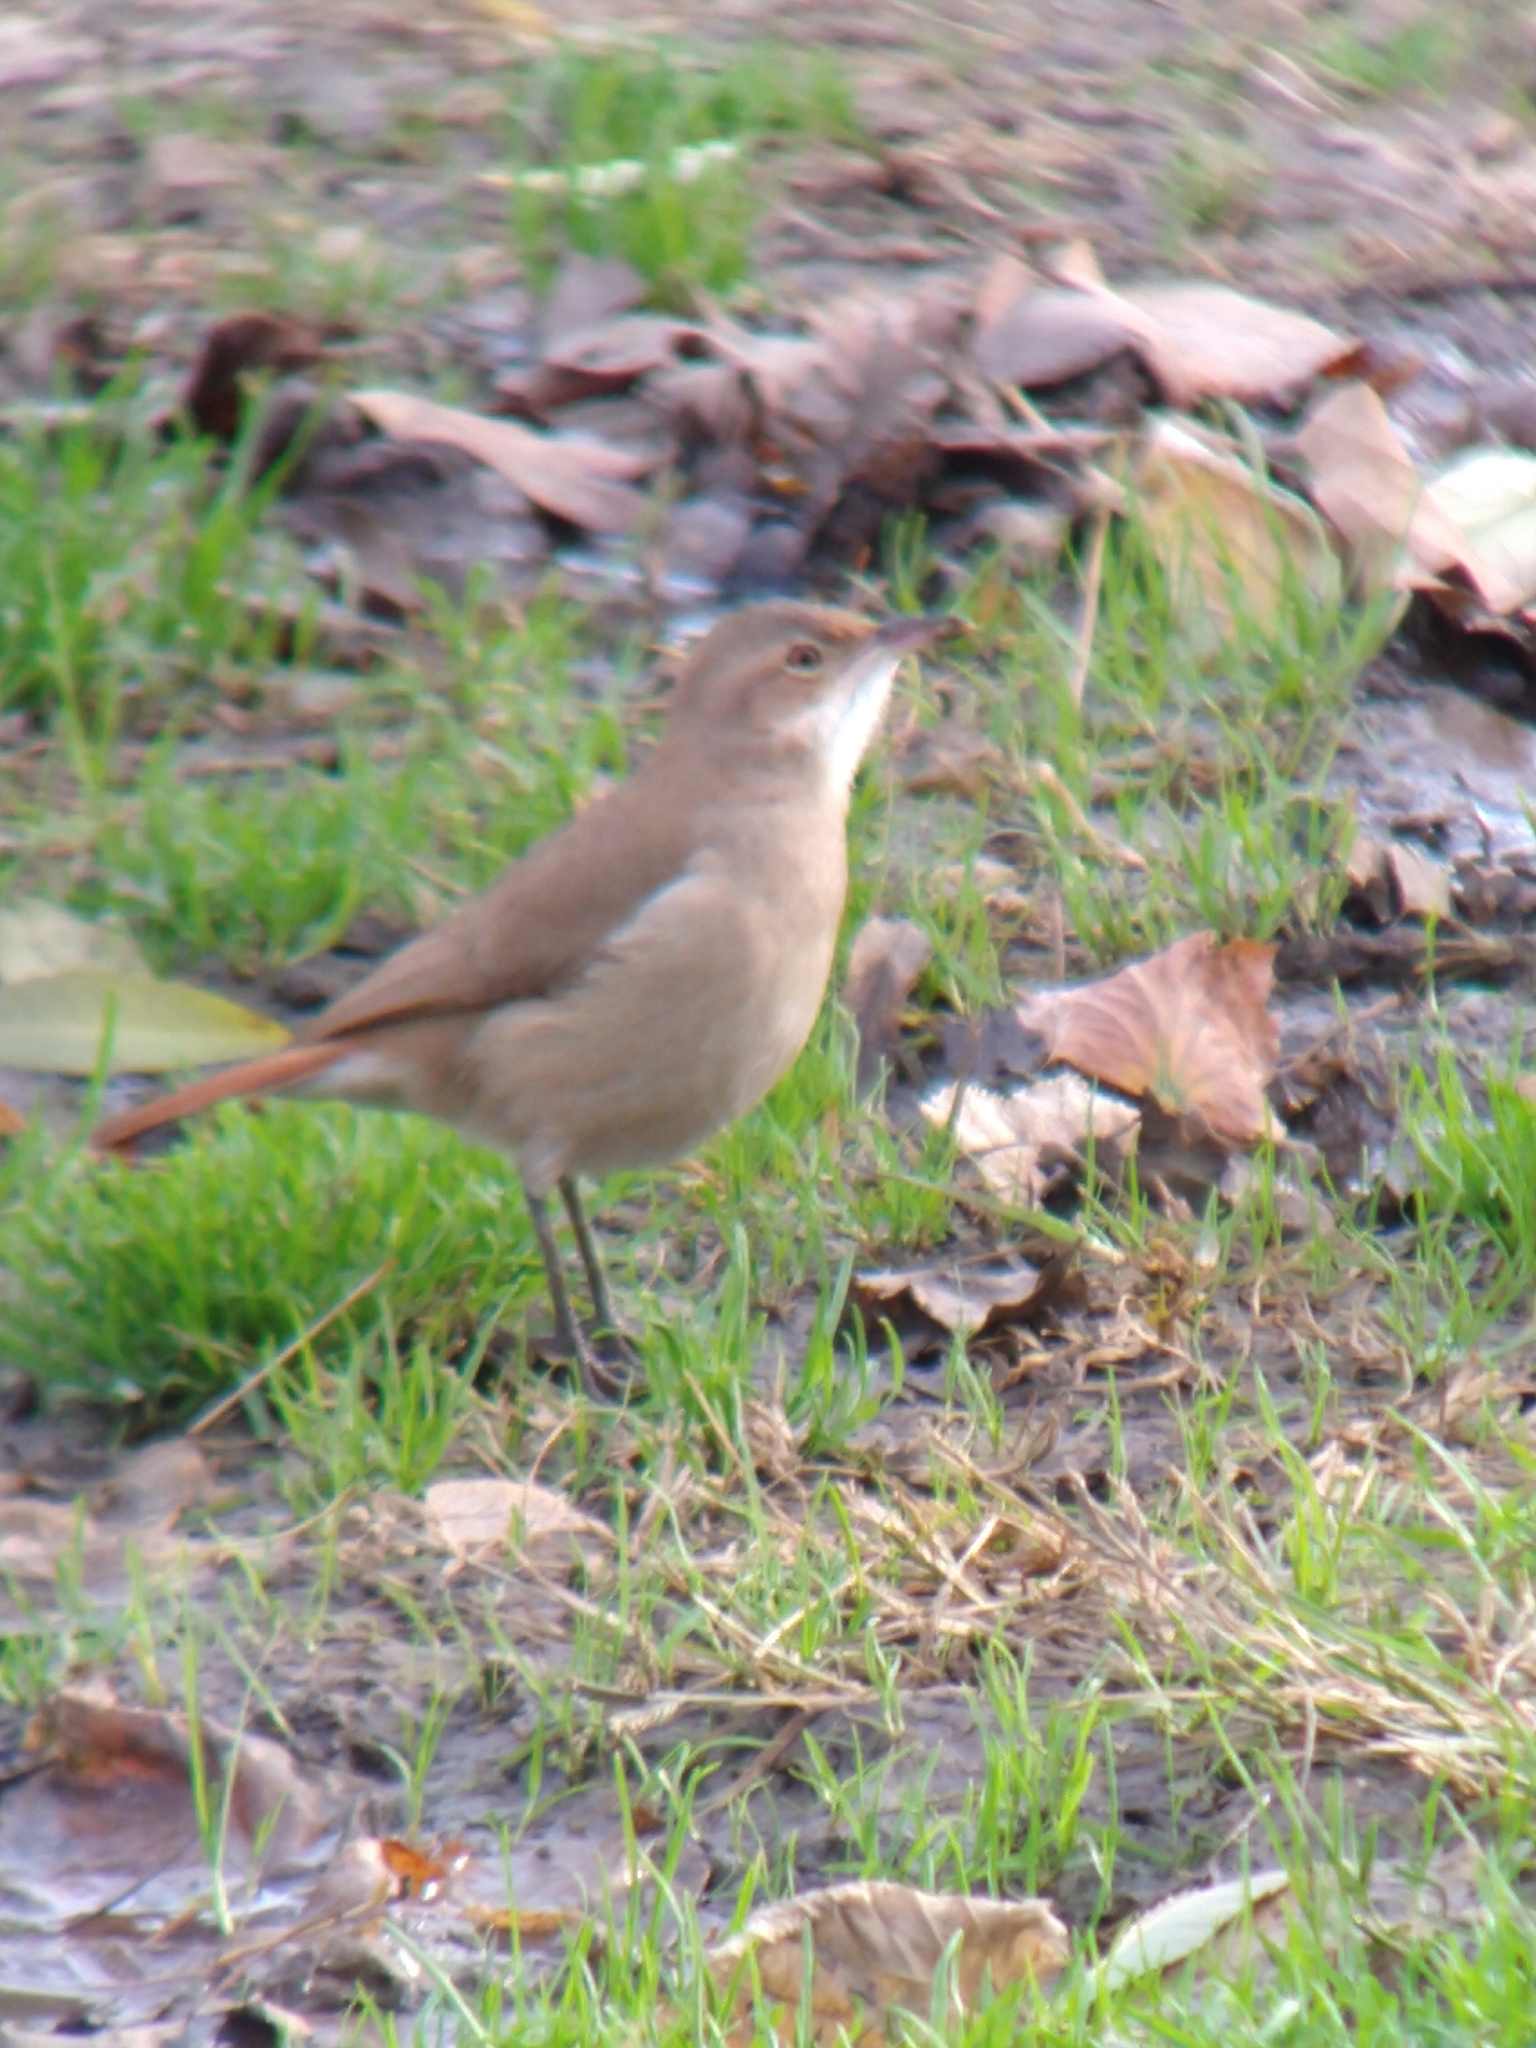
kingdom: Animalia
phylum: Chordata
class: Aves
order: Passeriformes
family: Furnariidae
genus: Furnarius
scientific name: Furnarius rufus
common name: Rufous hornero
